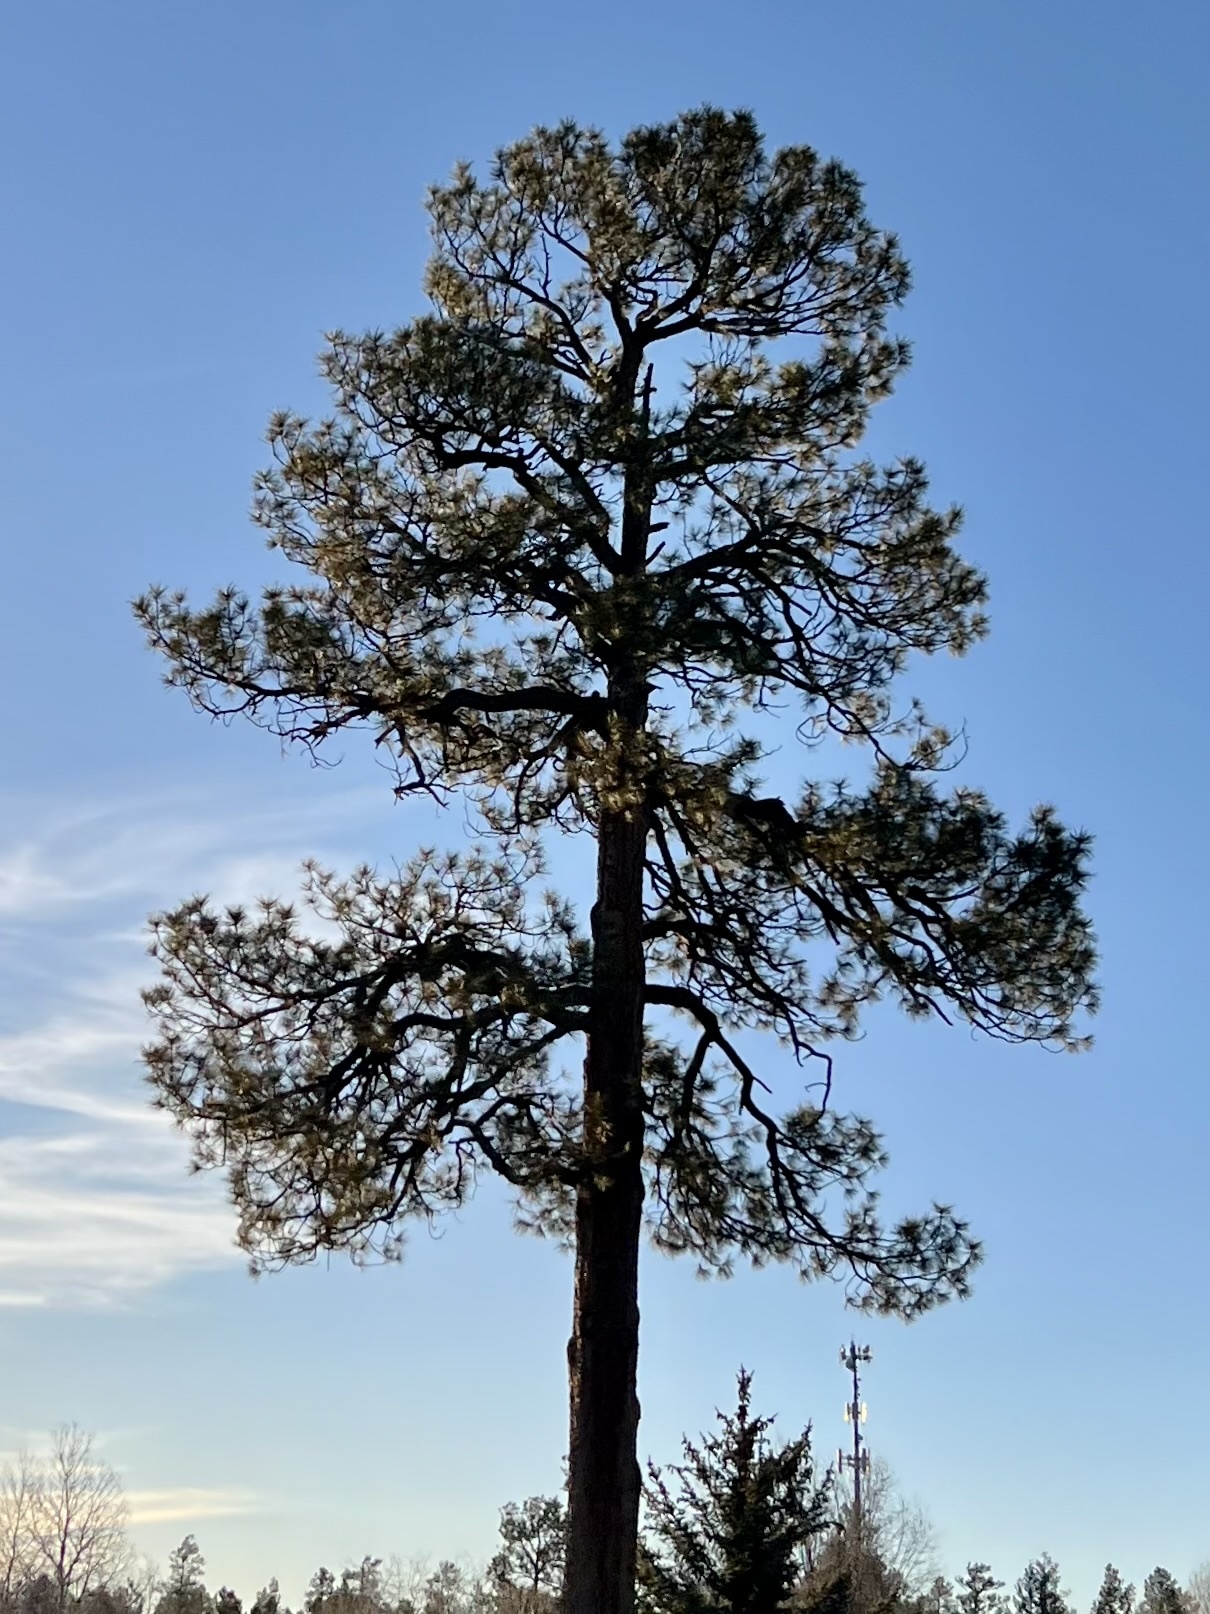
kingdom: Plantae
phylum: Tracheophyta
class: Pinopsida
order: Pinales
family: Pinaceae
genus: Pinus
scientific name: Pinus ponderosa
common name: Western yellow-pine
